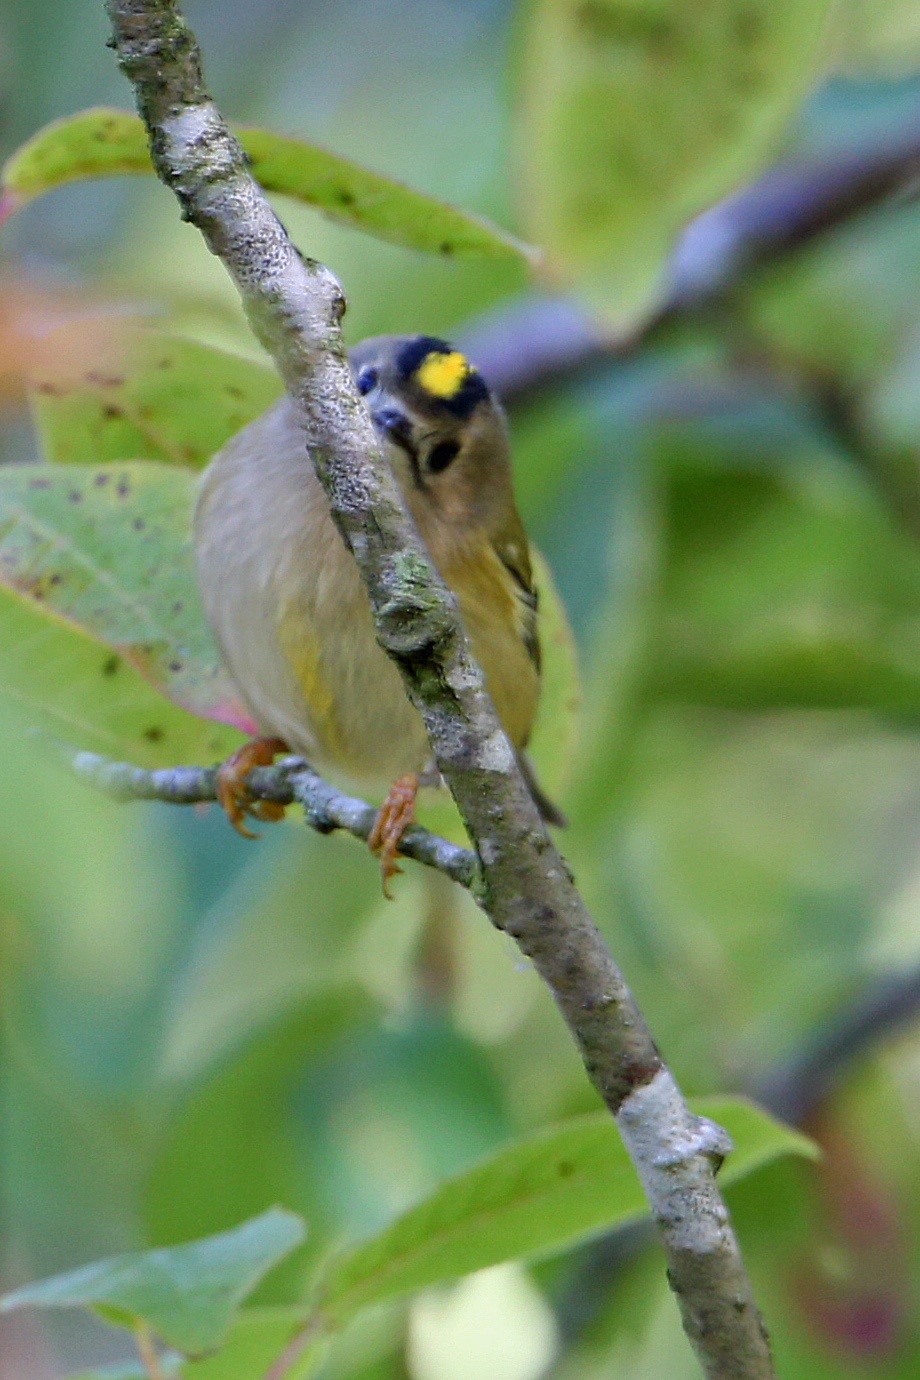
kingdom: Animalia
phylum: Chordata
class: Aves
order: Passeriformes
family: Regulidae
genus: Regulus
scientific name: Regulus regulus
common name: Goldcrest
